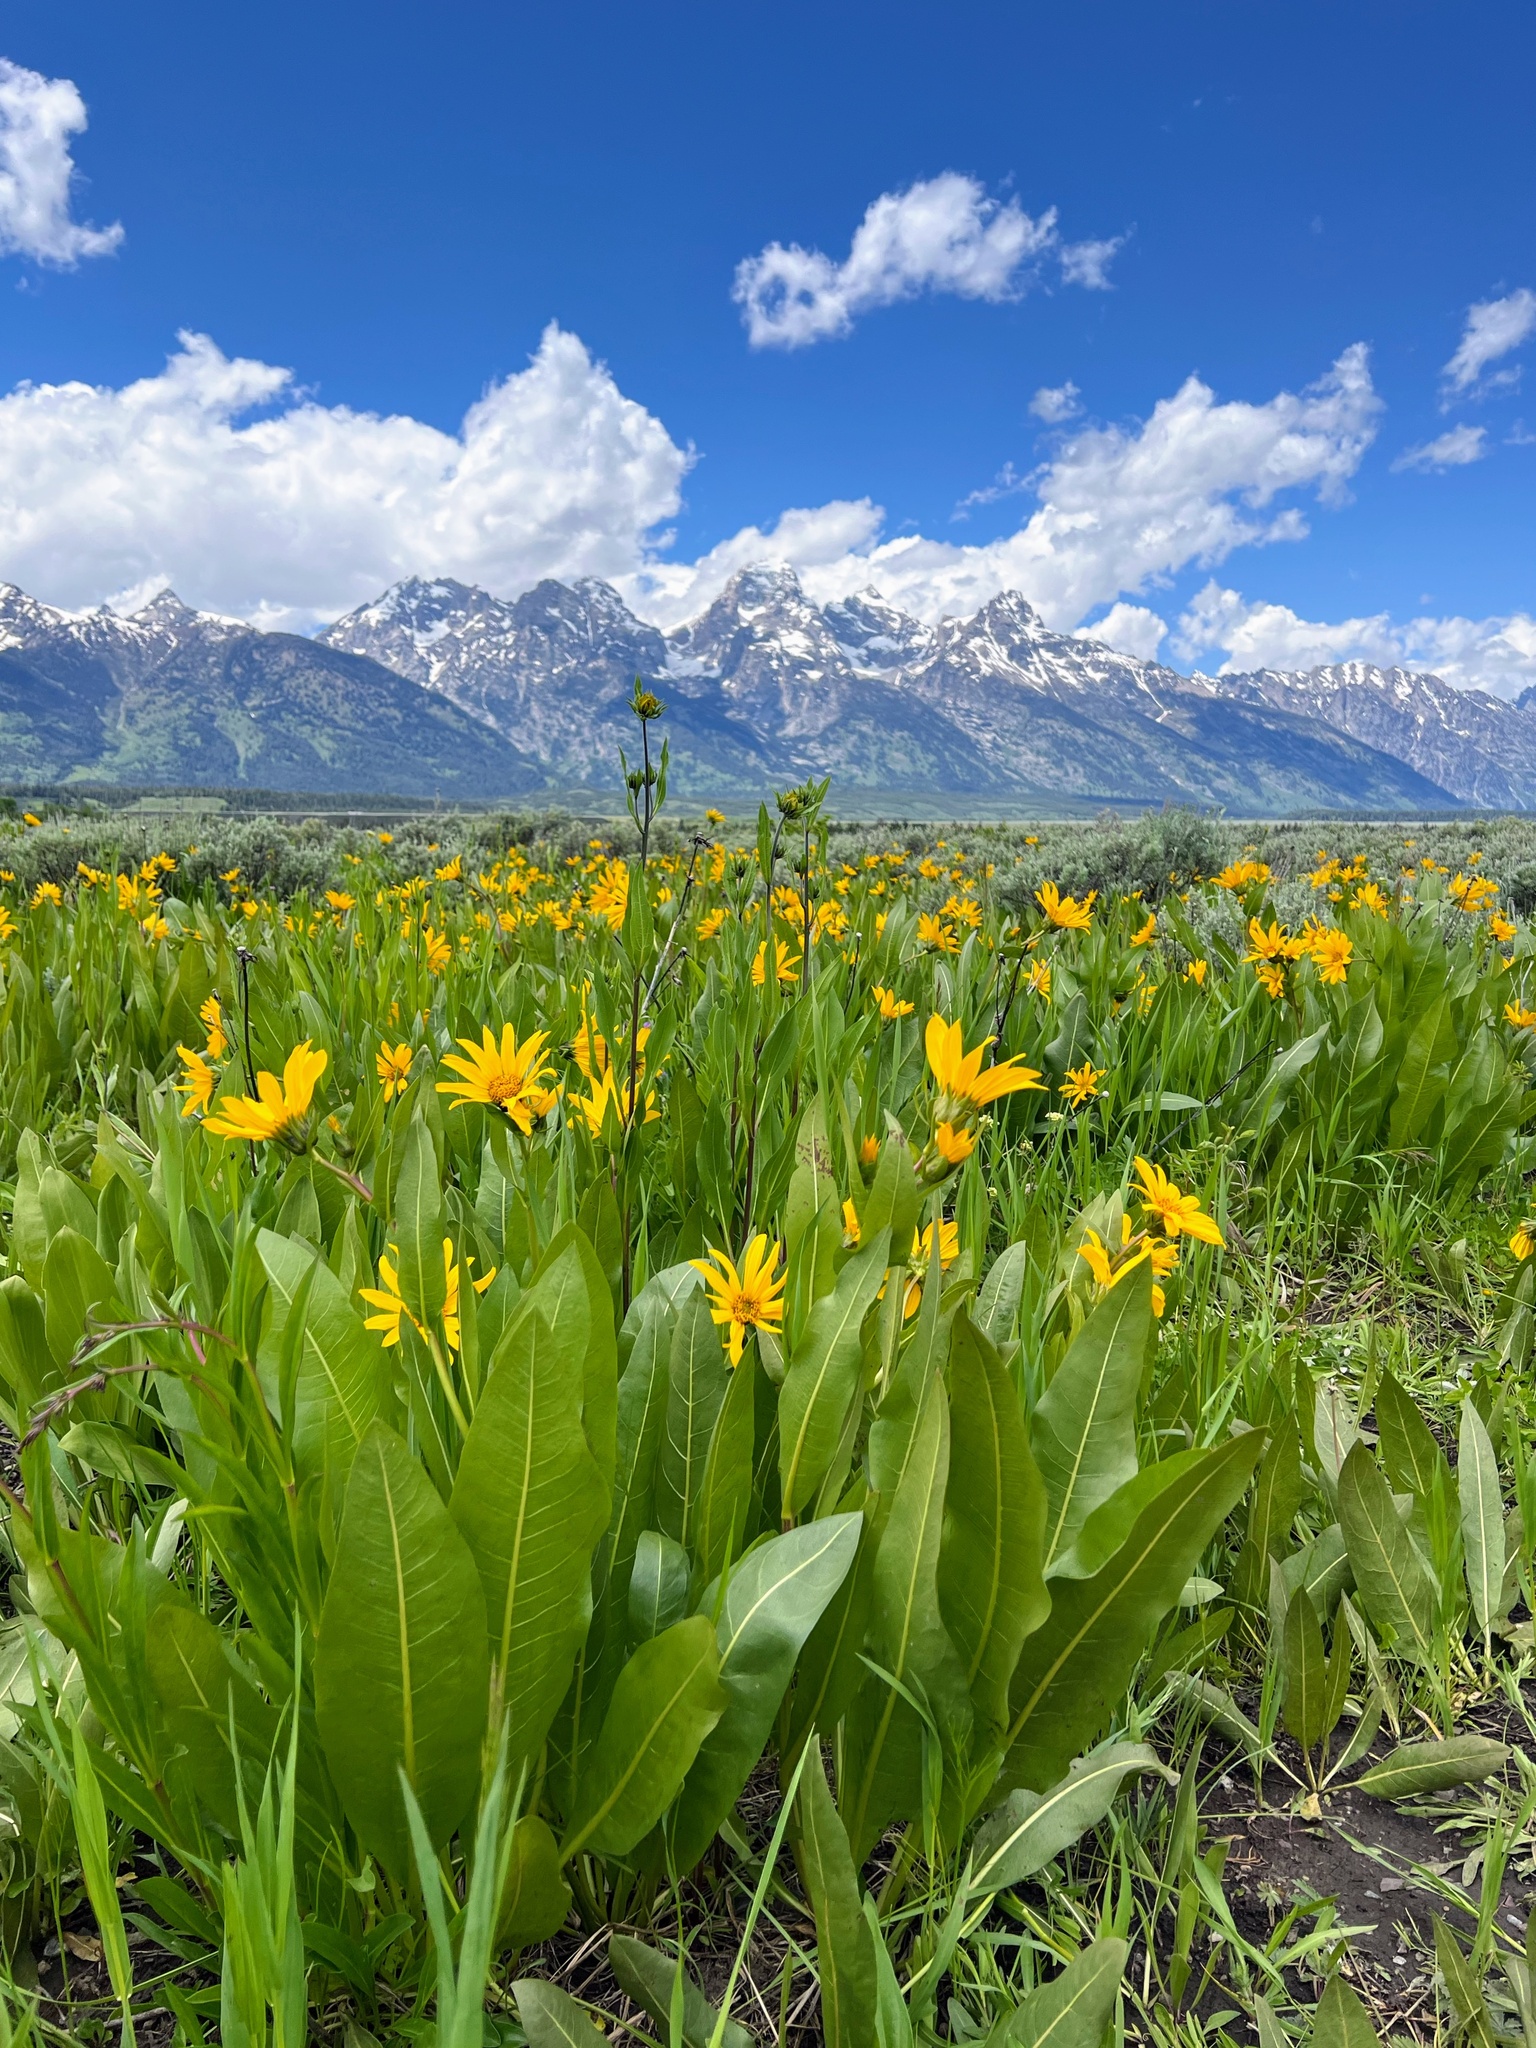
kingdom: Plantae
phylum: Tracheophyta
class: Magnoliopsida
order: Asterales
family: Asteraceae
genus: Wyethia
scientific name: Wyethia amplexicaulis
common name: Northern mule's-ears
